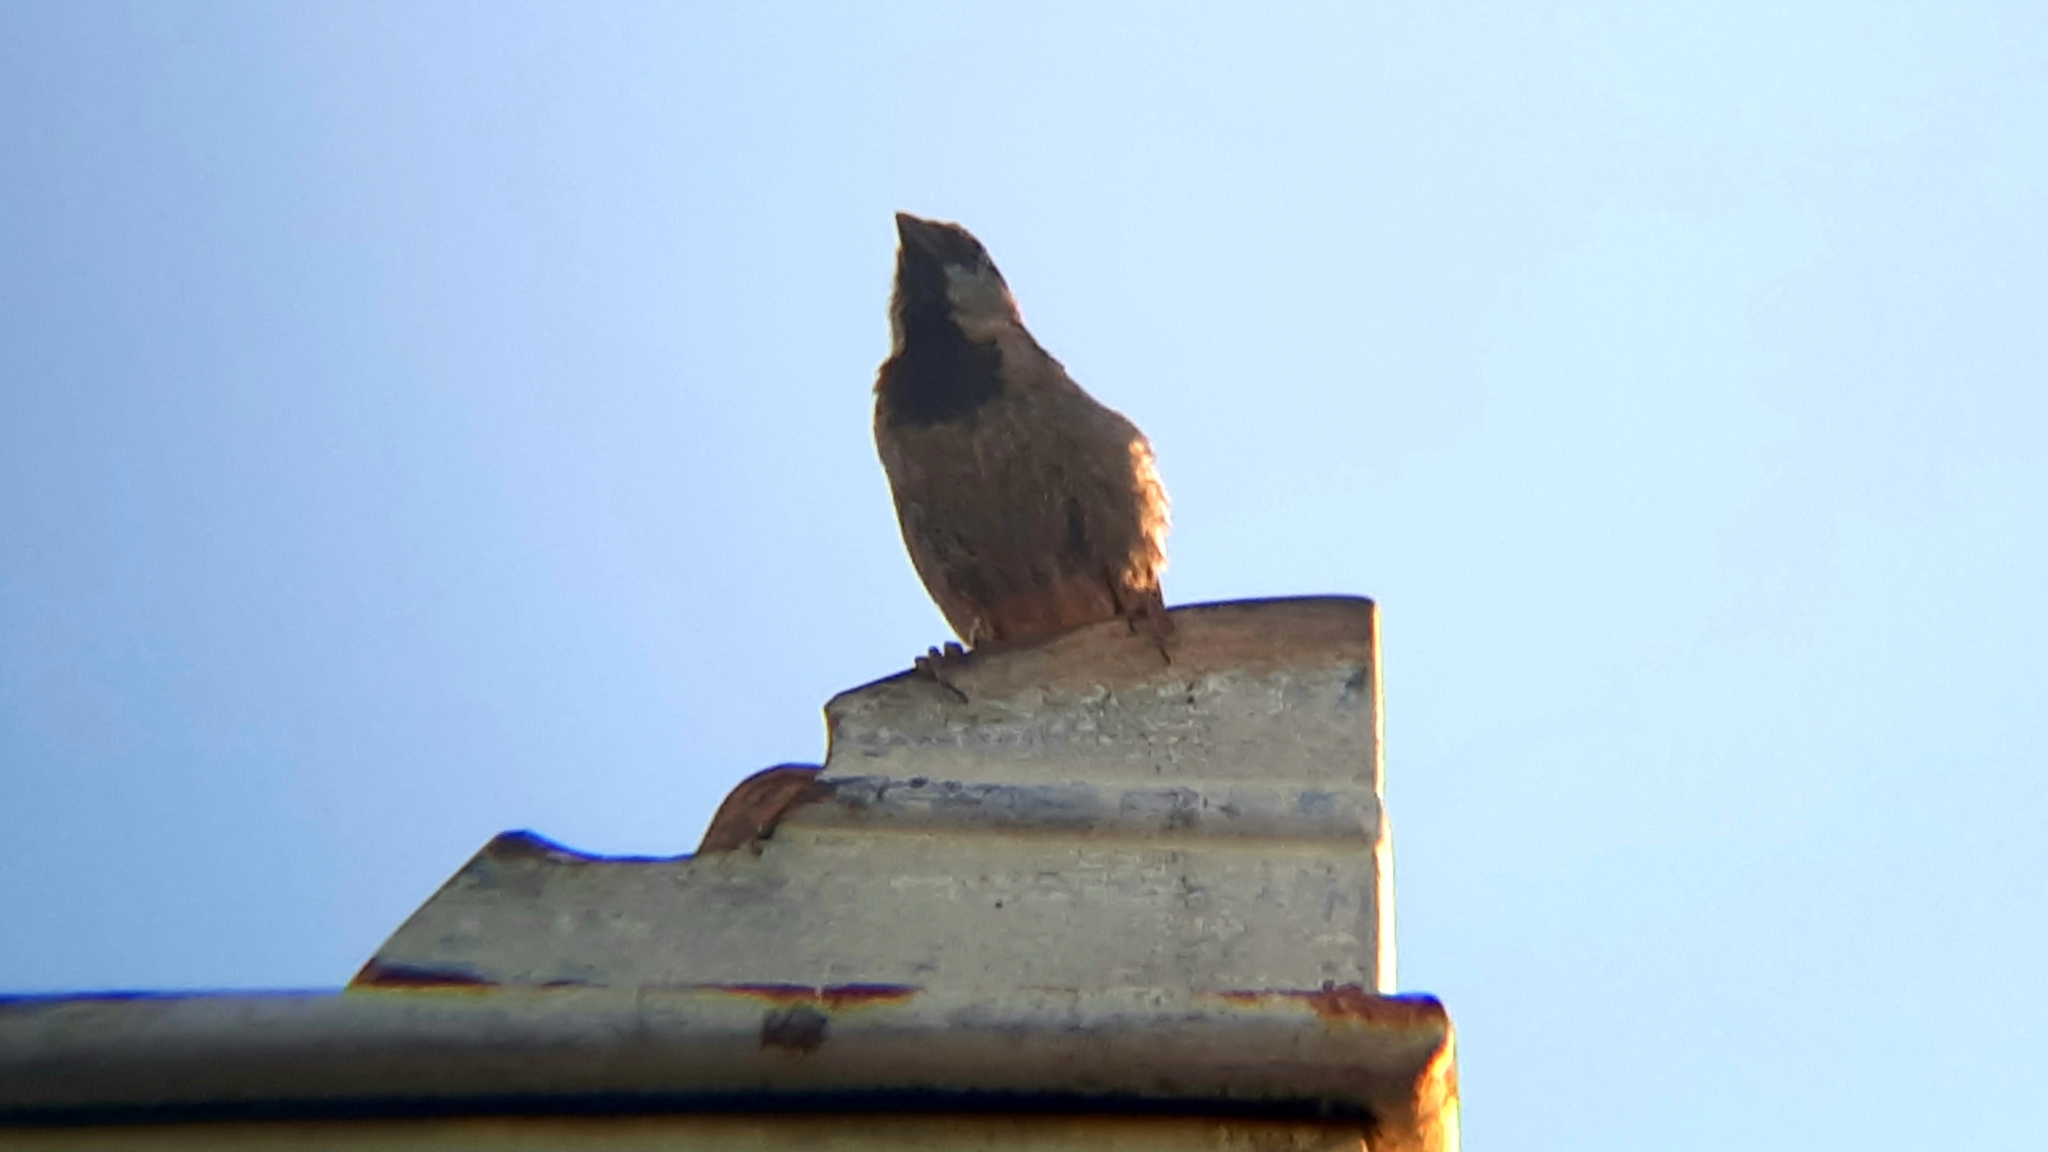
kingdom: Animalia
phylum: Chordata
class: Aves
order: Passeriformes
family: Passeridae
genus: Passer
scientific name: Passer domesticus
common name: House sparrow
